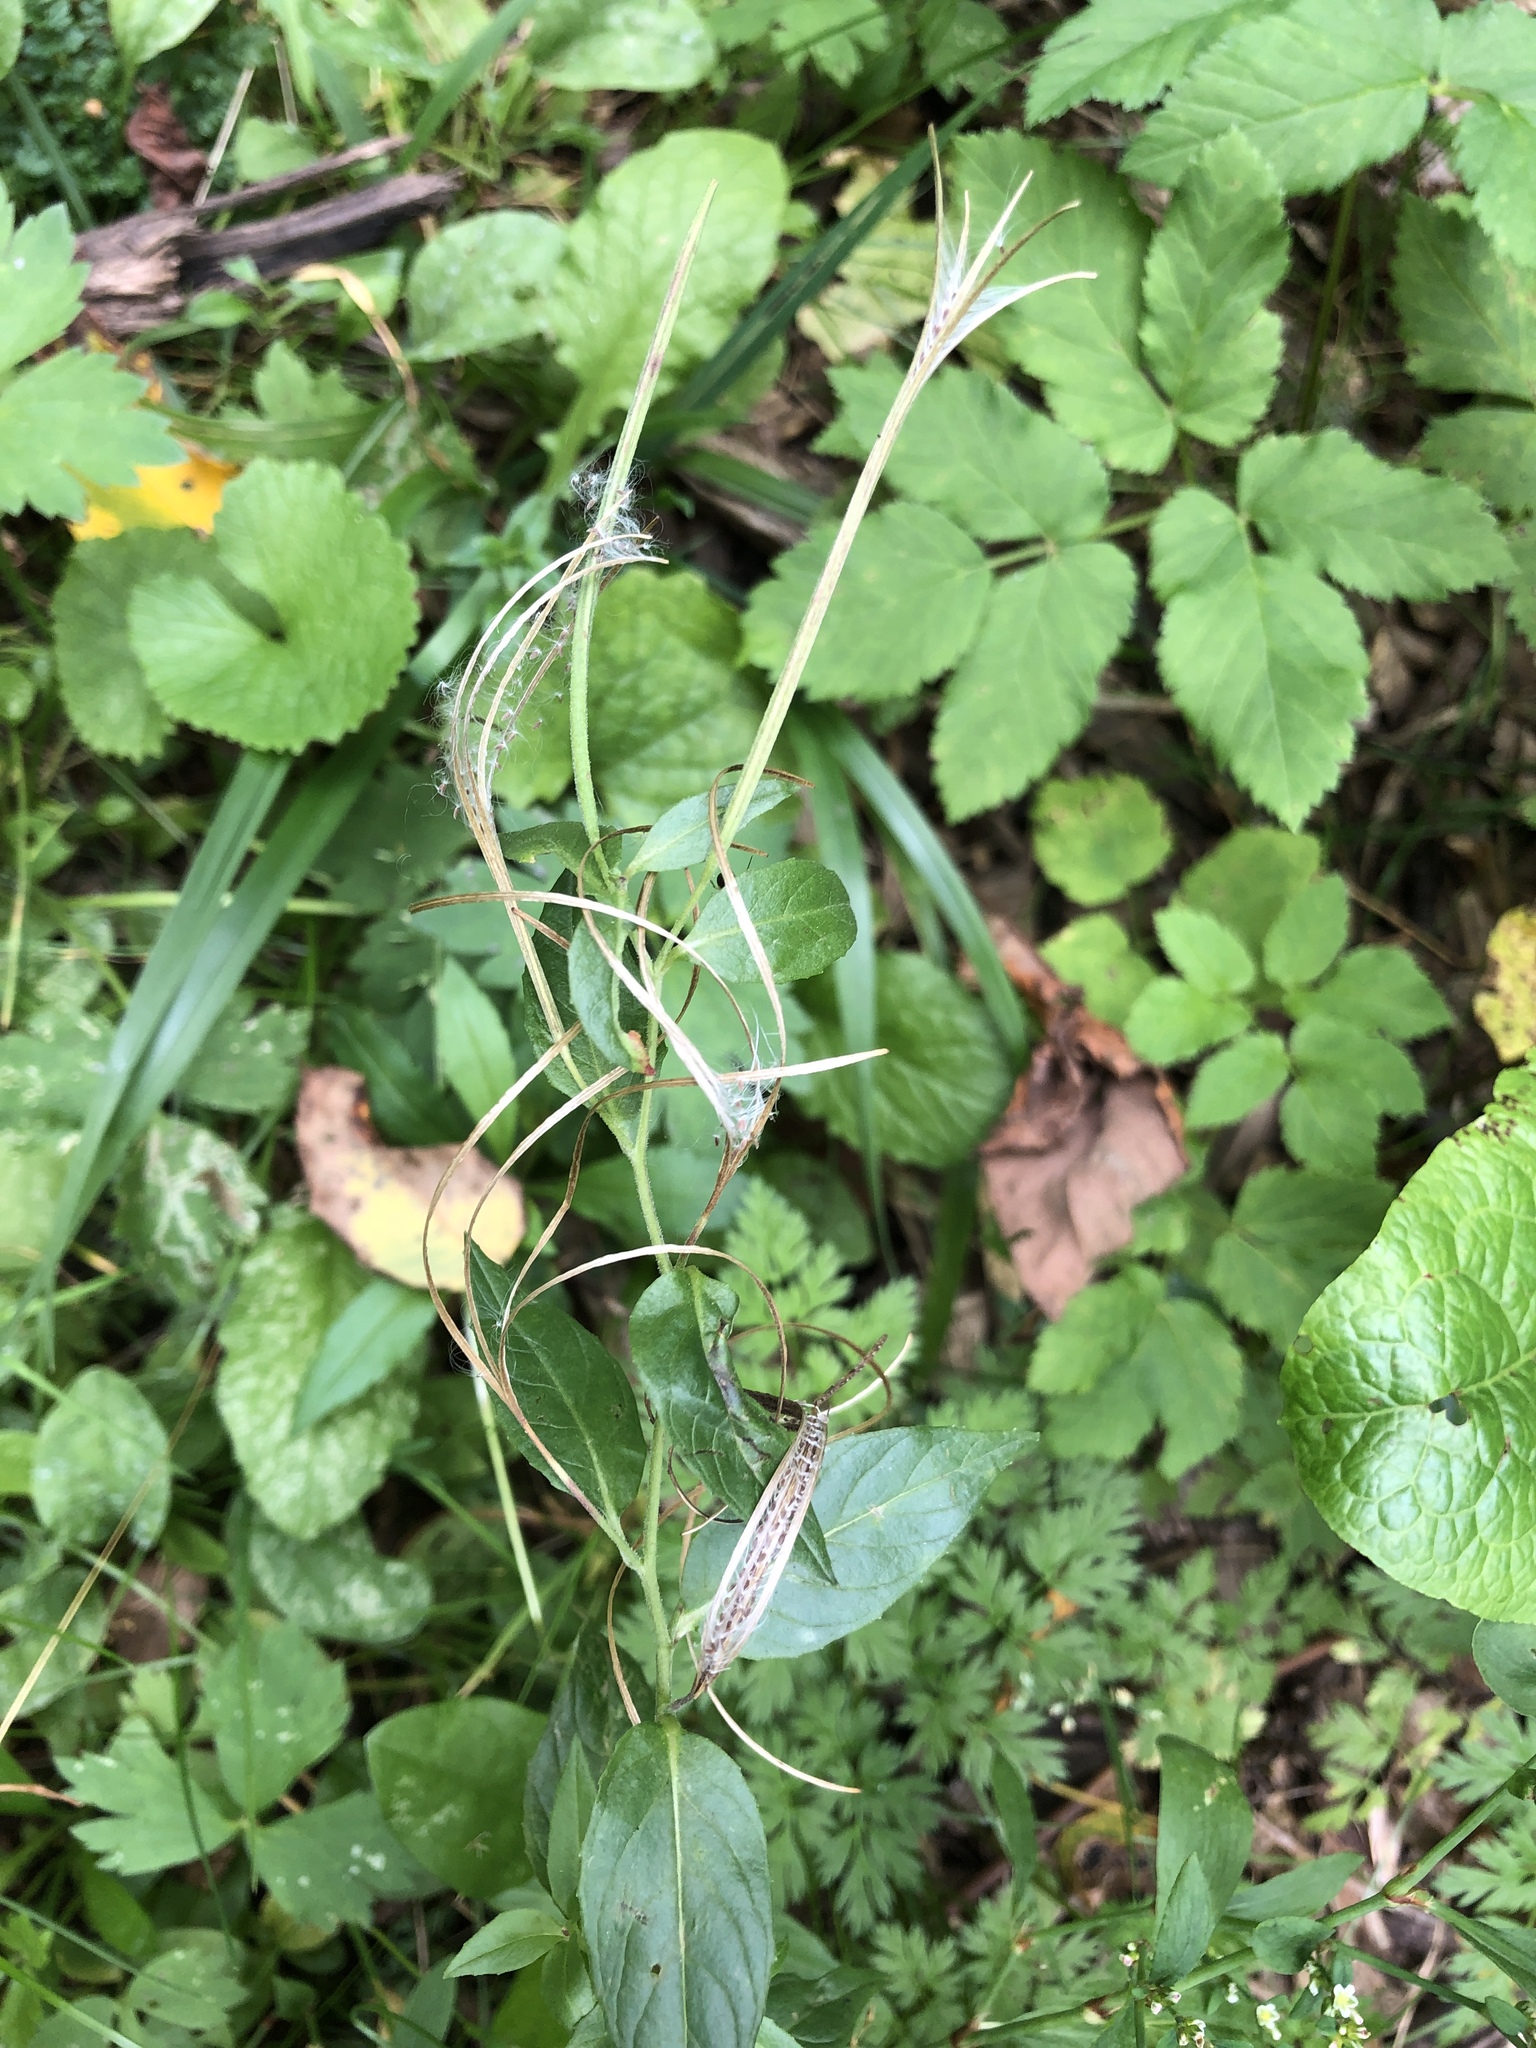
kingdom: Plantae
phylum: Tracheophyta
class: Magnoliopsida
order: Myrtales
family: Onagraceae
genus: Epilobium
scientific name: Epilobium ciliatum
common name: American willowherb
